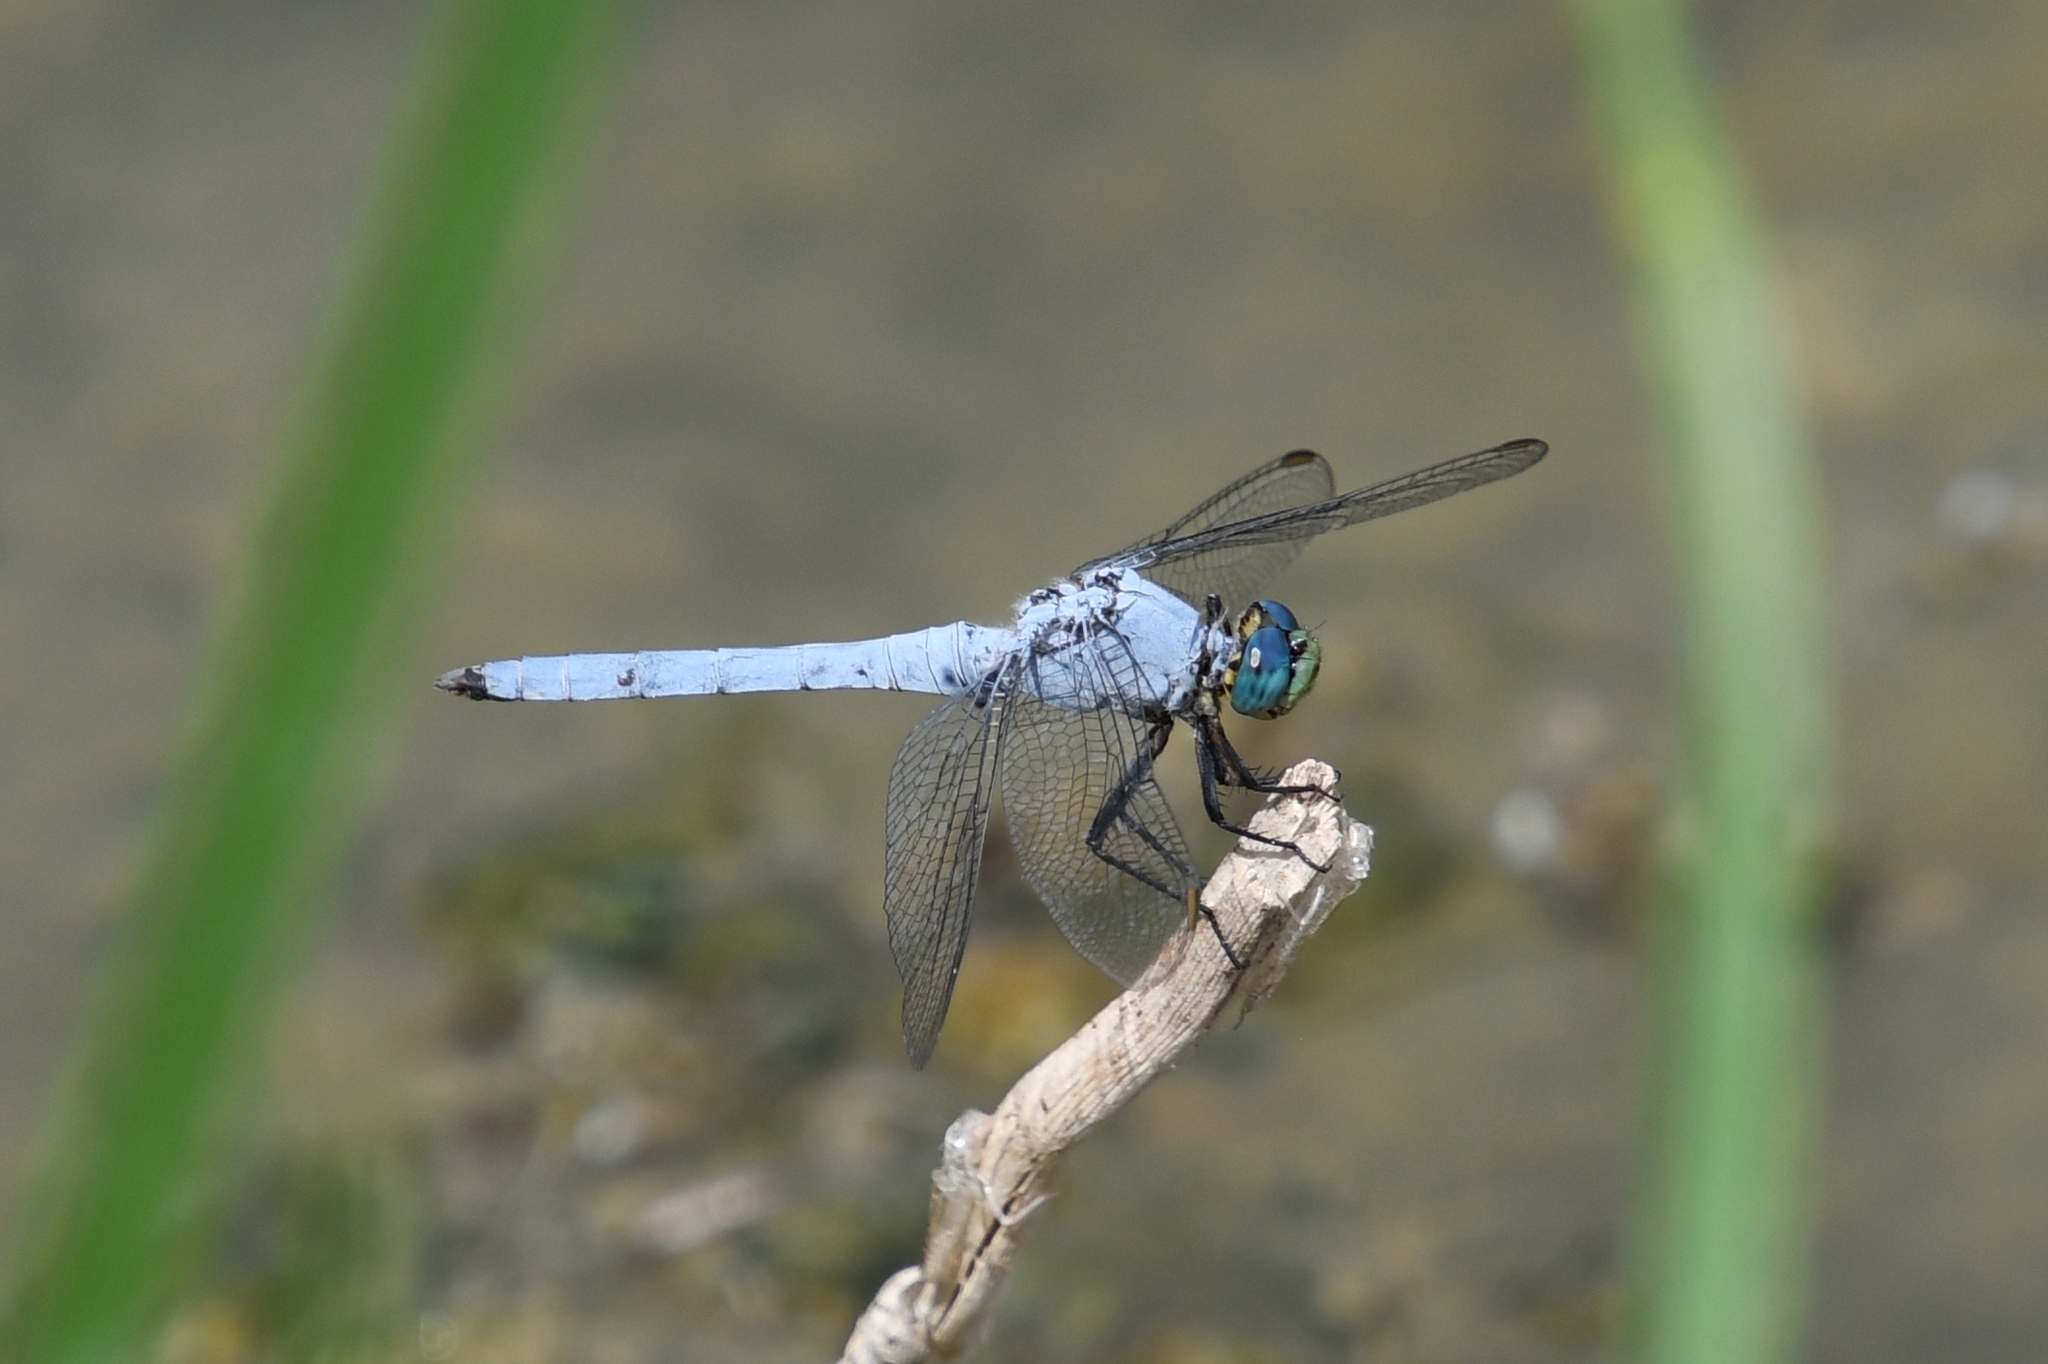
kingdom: Animalia
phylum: Arthropoda
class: Insecta
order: Odonata
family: Libellulidae
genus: Erythemis
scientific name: Erythemis collocata
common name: Western pondhawk
